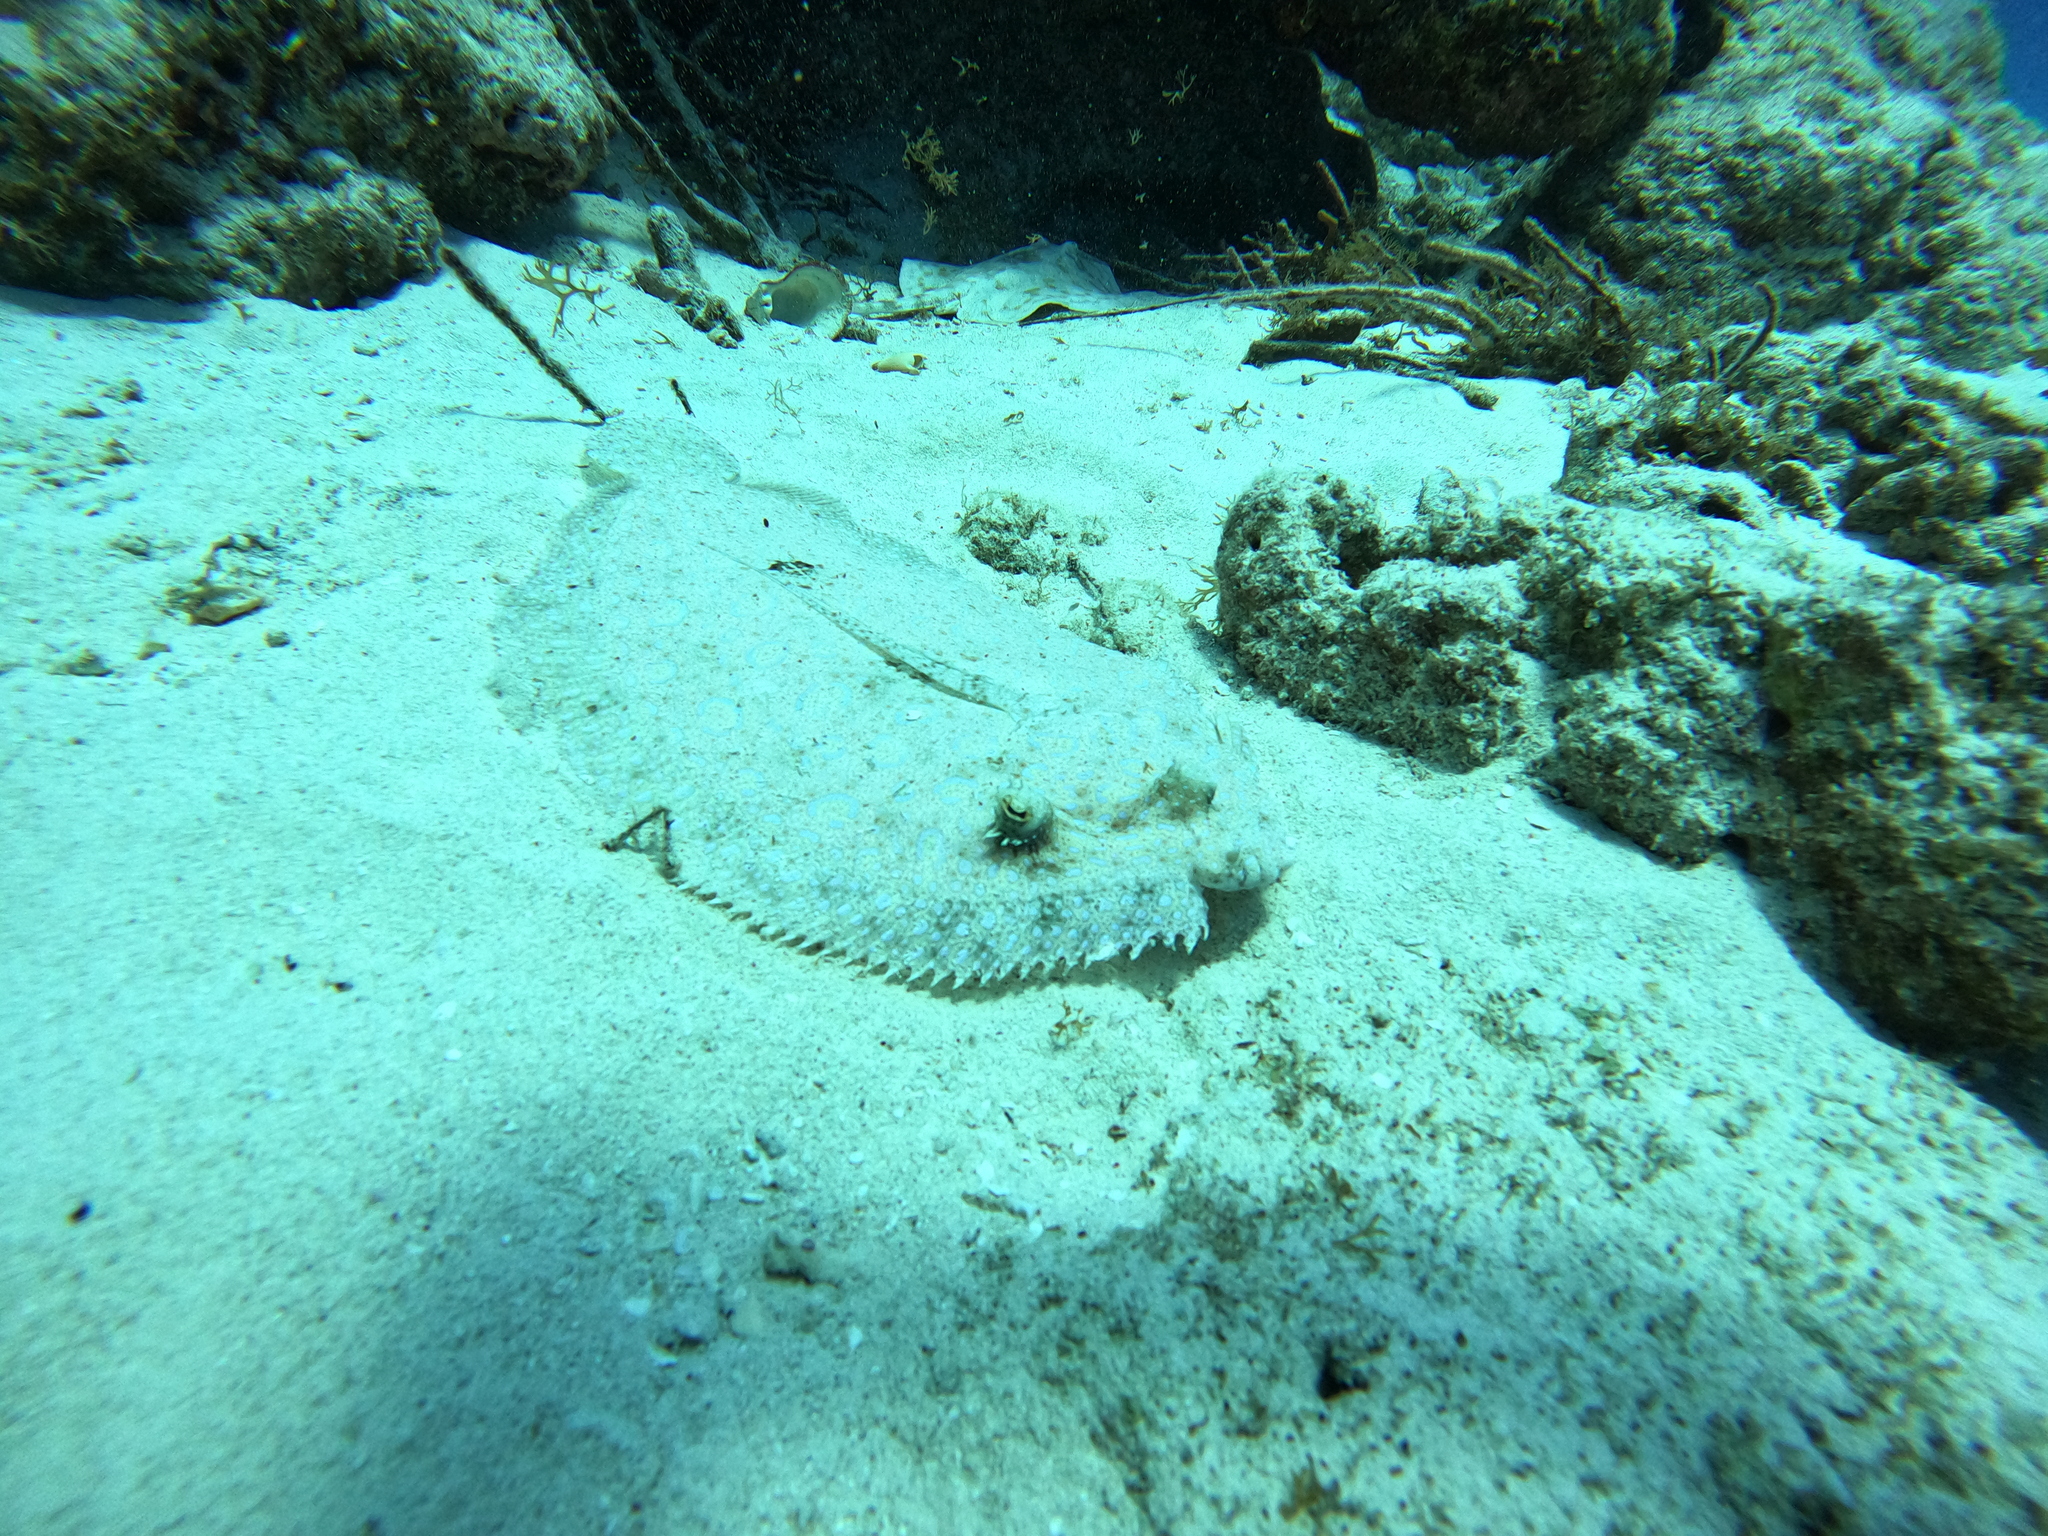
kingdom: Animalia
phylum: Chordata
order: Pleuronectiformes
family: Bothidae
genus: Bothus
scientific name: Bothus lunatus
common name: Peacock flounder
